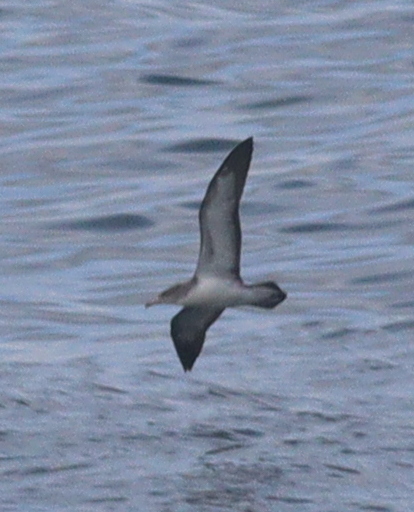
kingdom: Animalia
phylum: Chordata
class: Aves
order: Procellariiformes
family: Procellariidae
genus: Calonectris
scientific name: Calonectris diomedea
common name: Cory's shearwater
